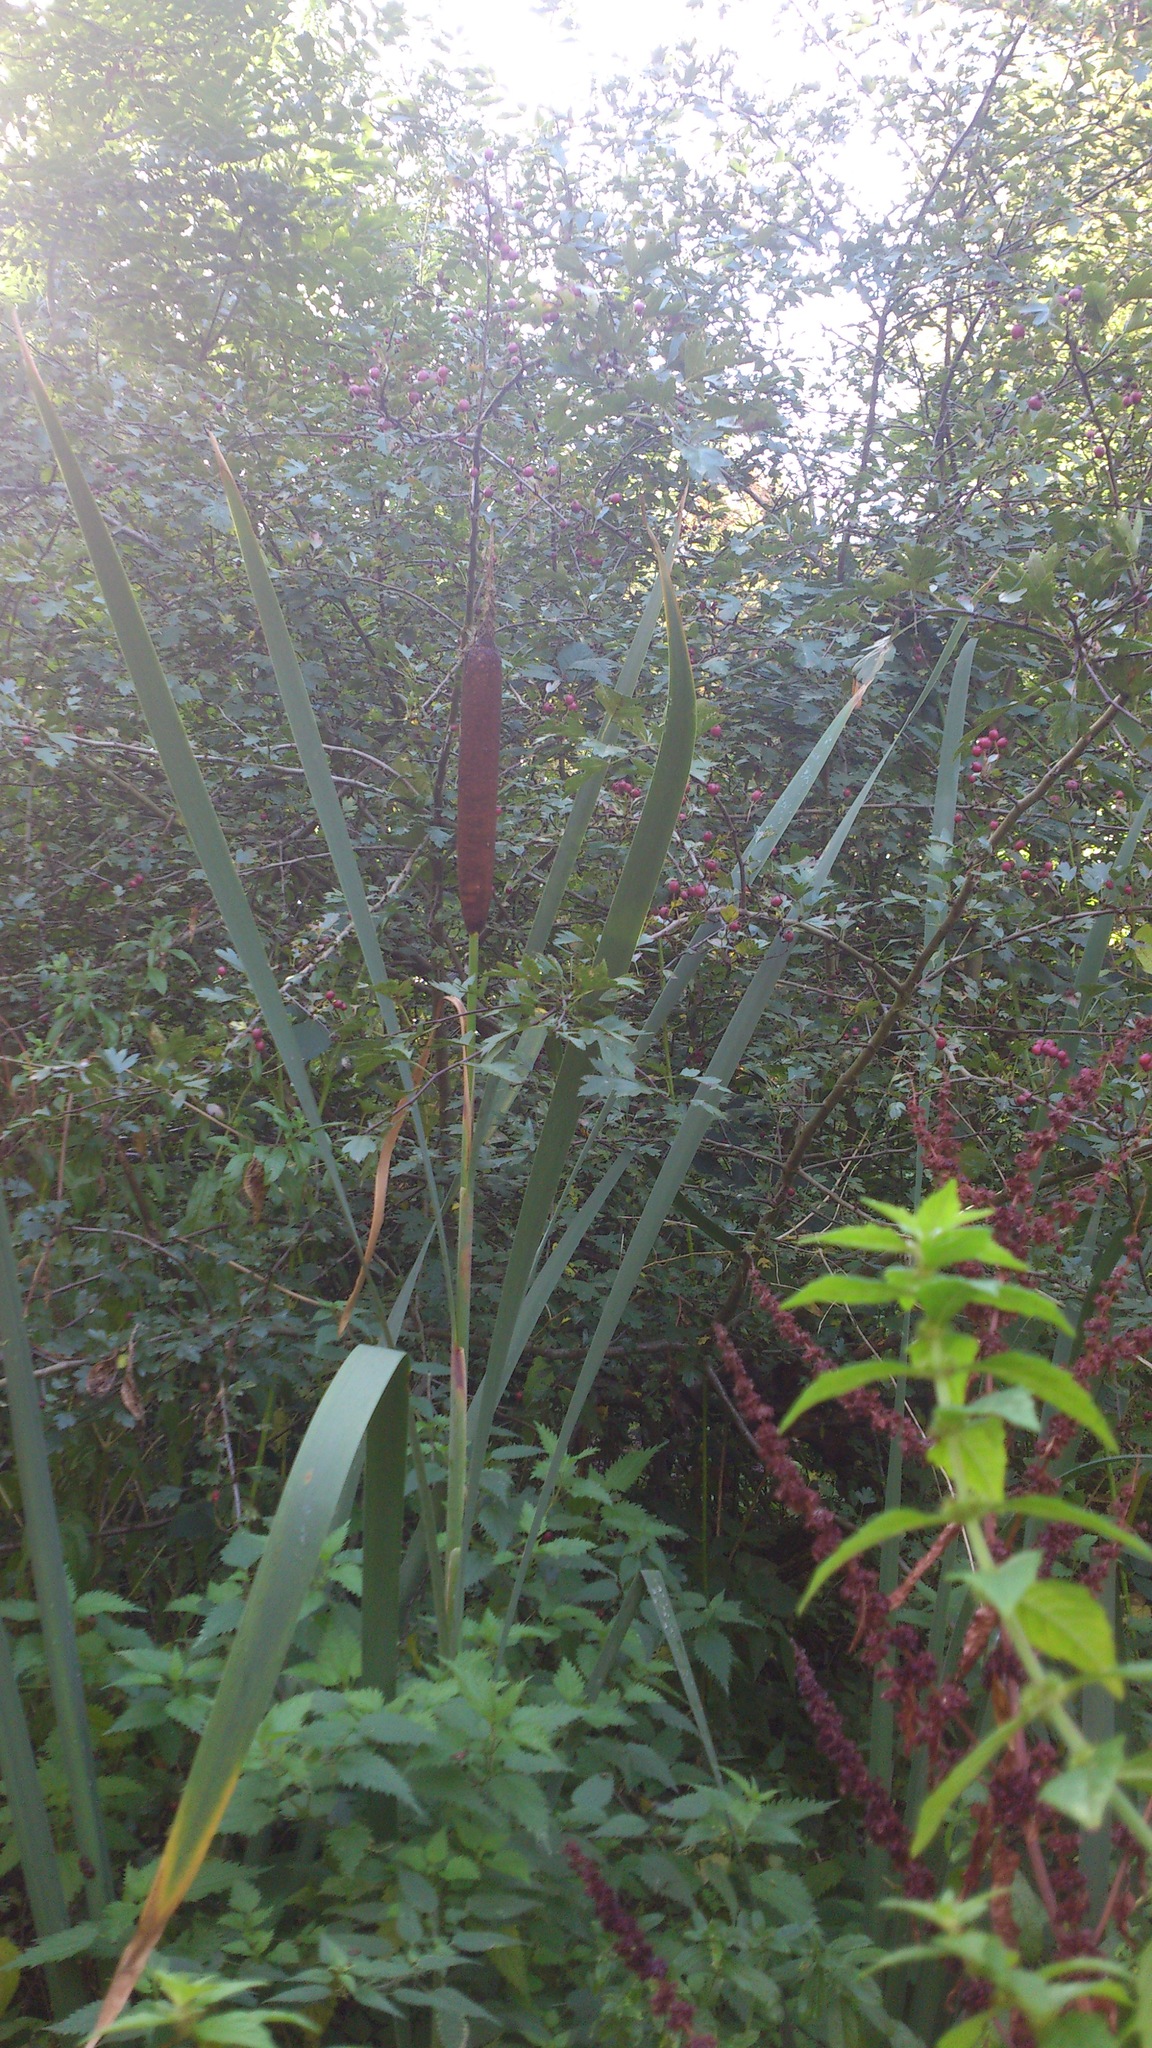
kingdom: Plantae
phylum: Tracheophyta
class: Liliopsida
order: Poales
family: Typhaceae
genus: Typha
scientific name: Typha latifolia
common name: Broadleaf cattail
